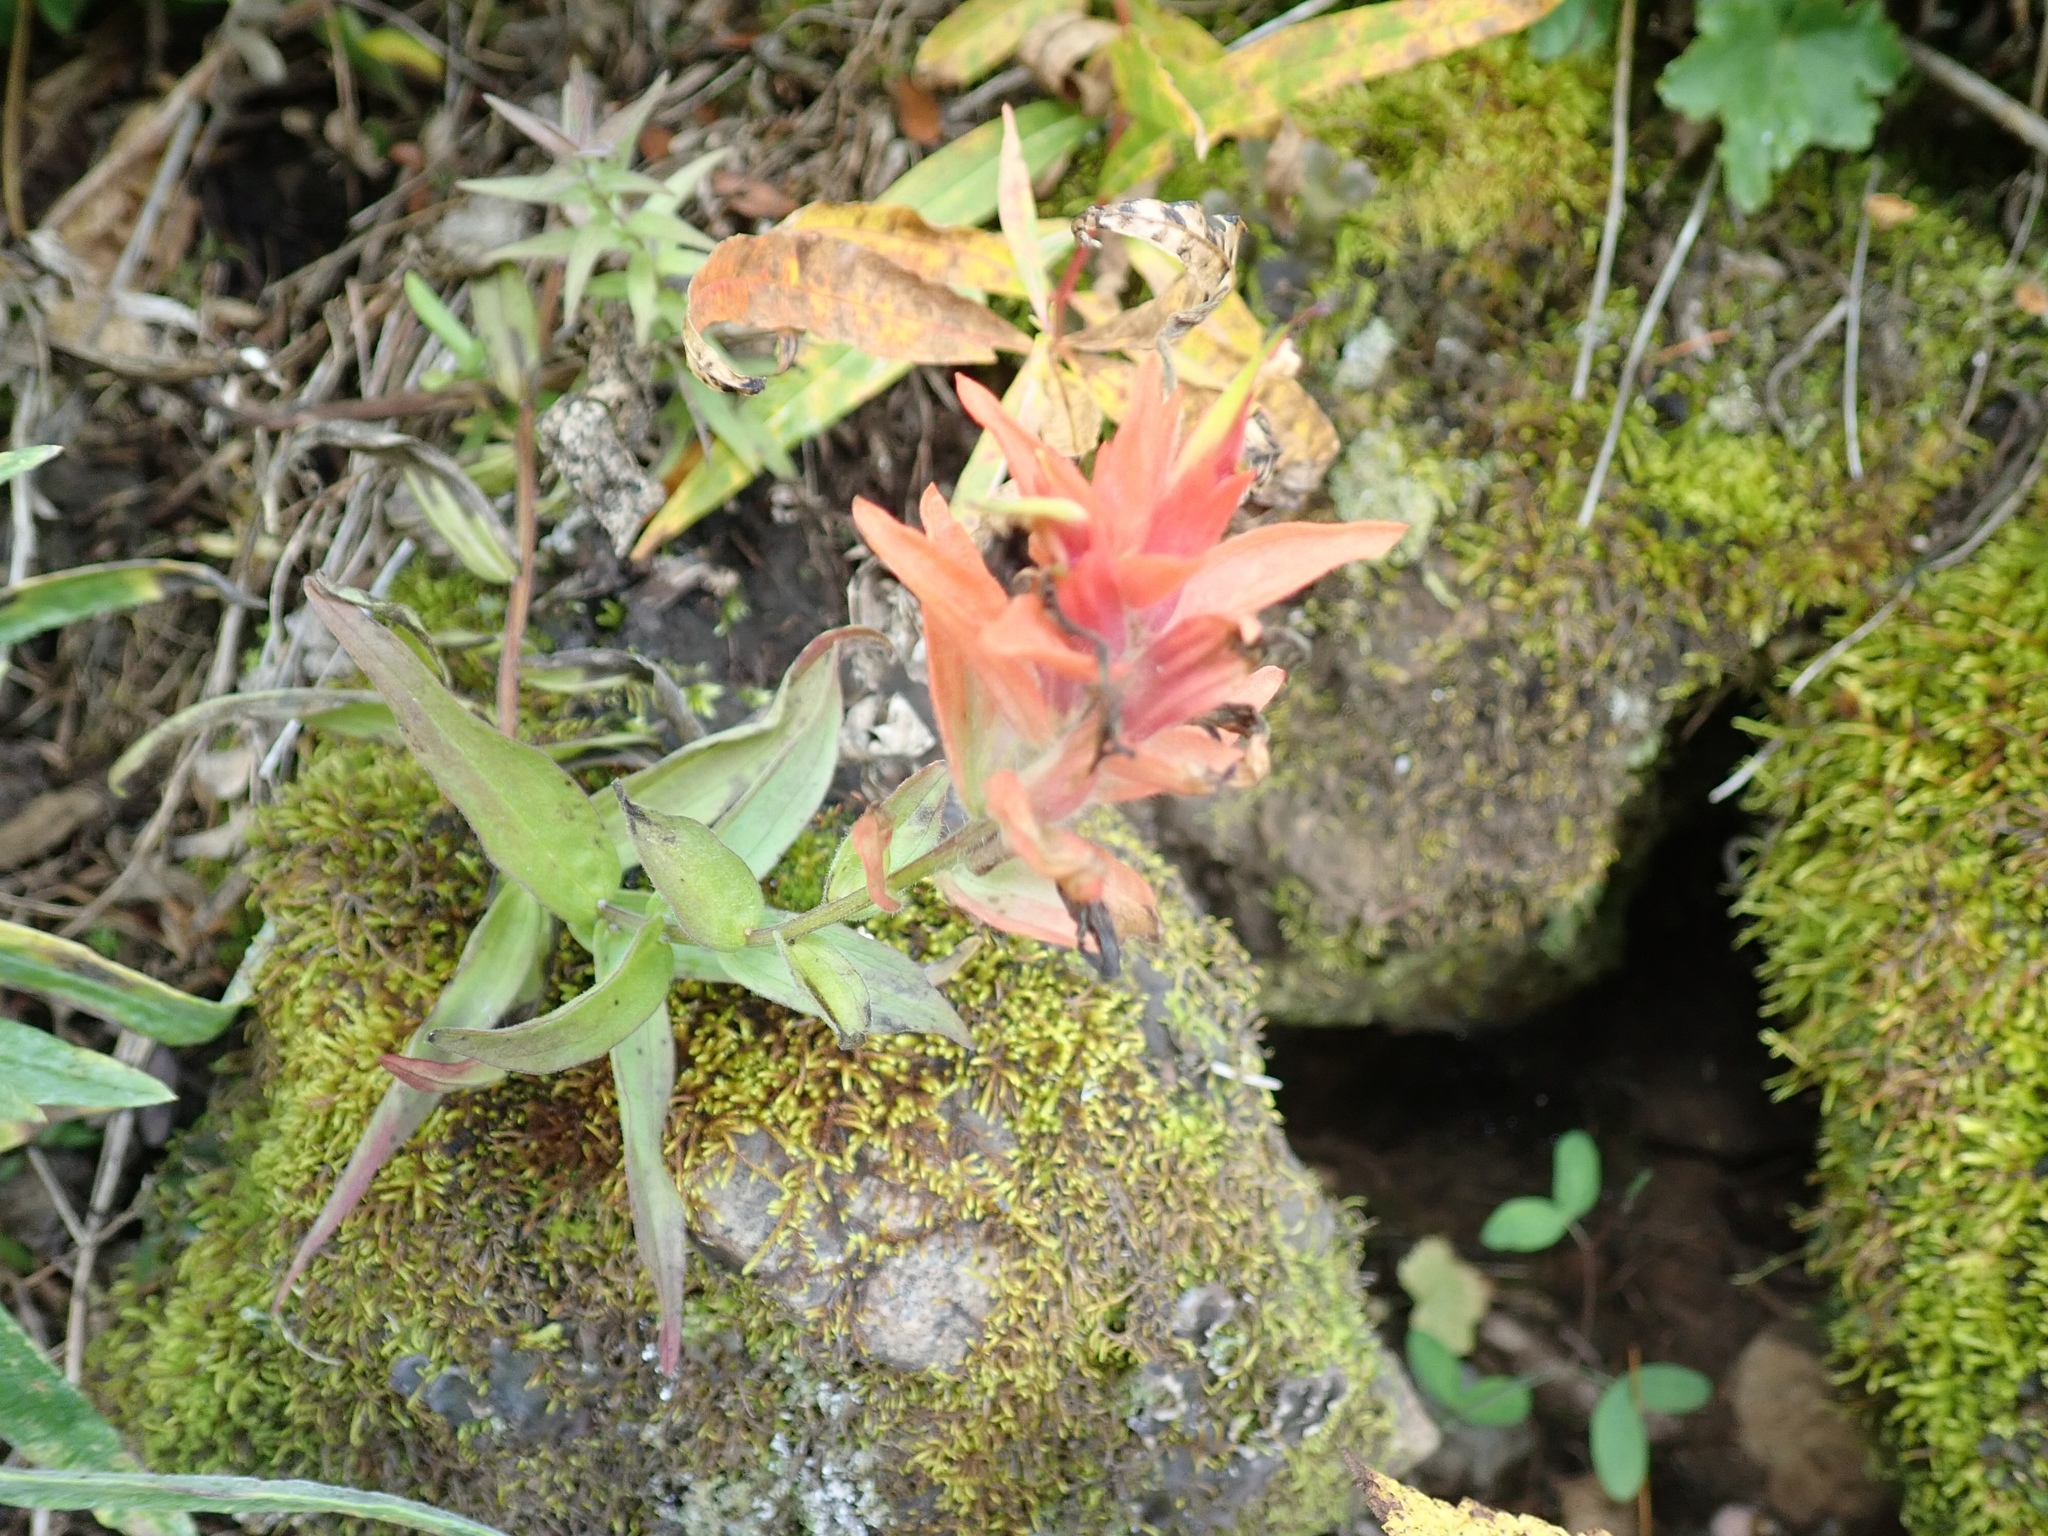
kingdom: Plantae
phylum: Tracheophyta
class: Magnoliopsida
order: Lamiales
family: Orobanchaceae
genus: Castilleja
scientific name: Castilleja miniata
